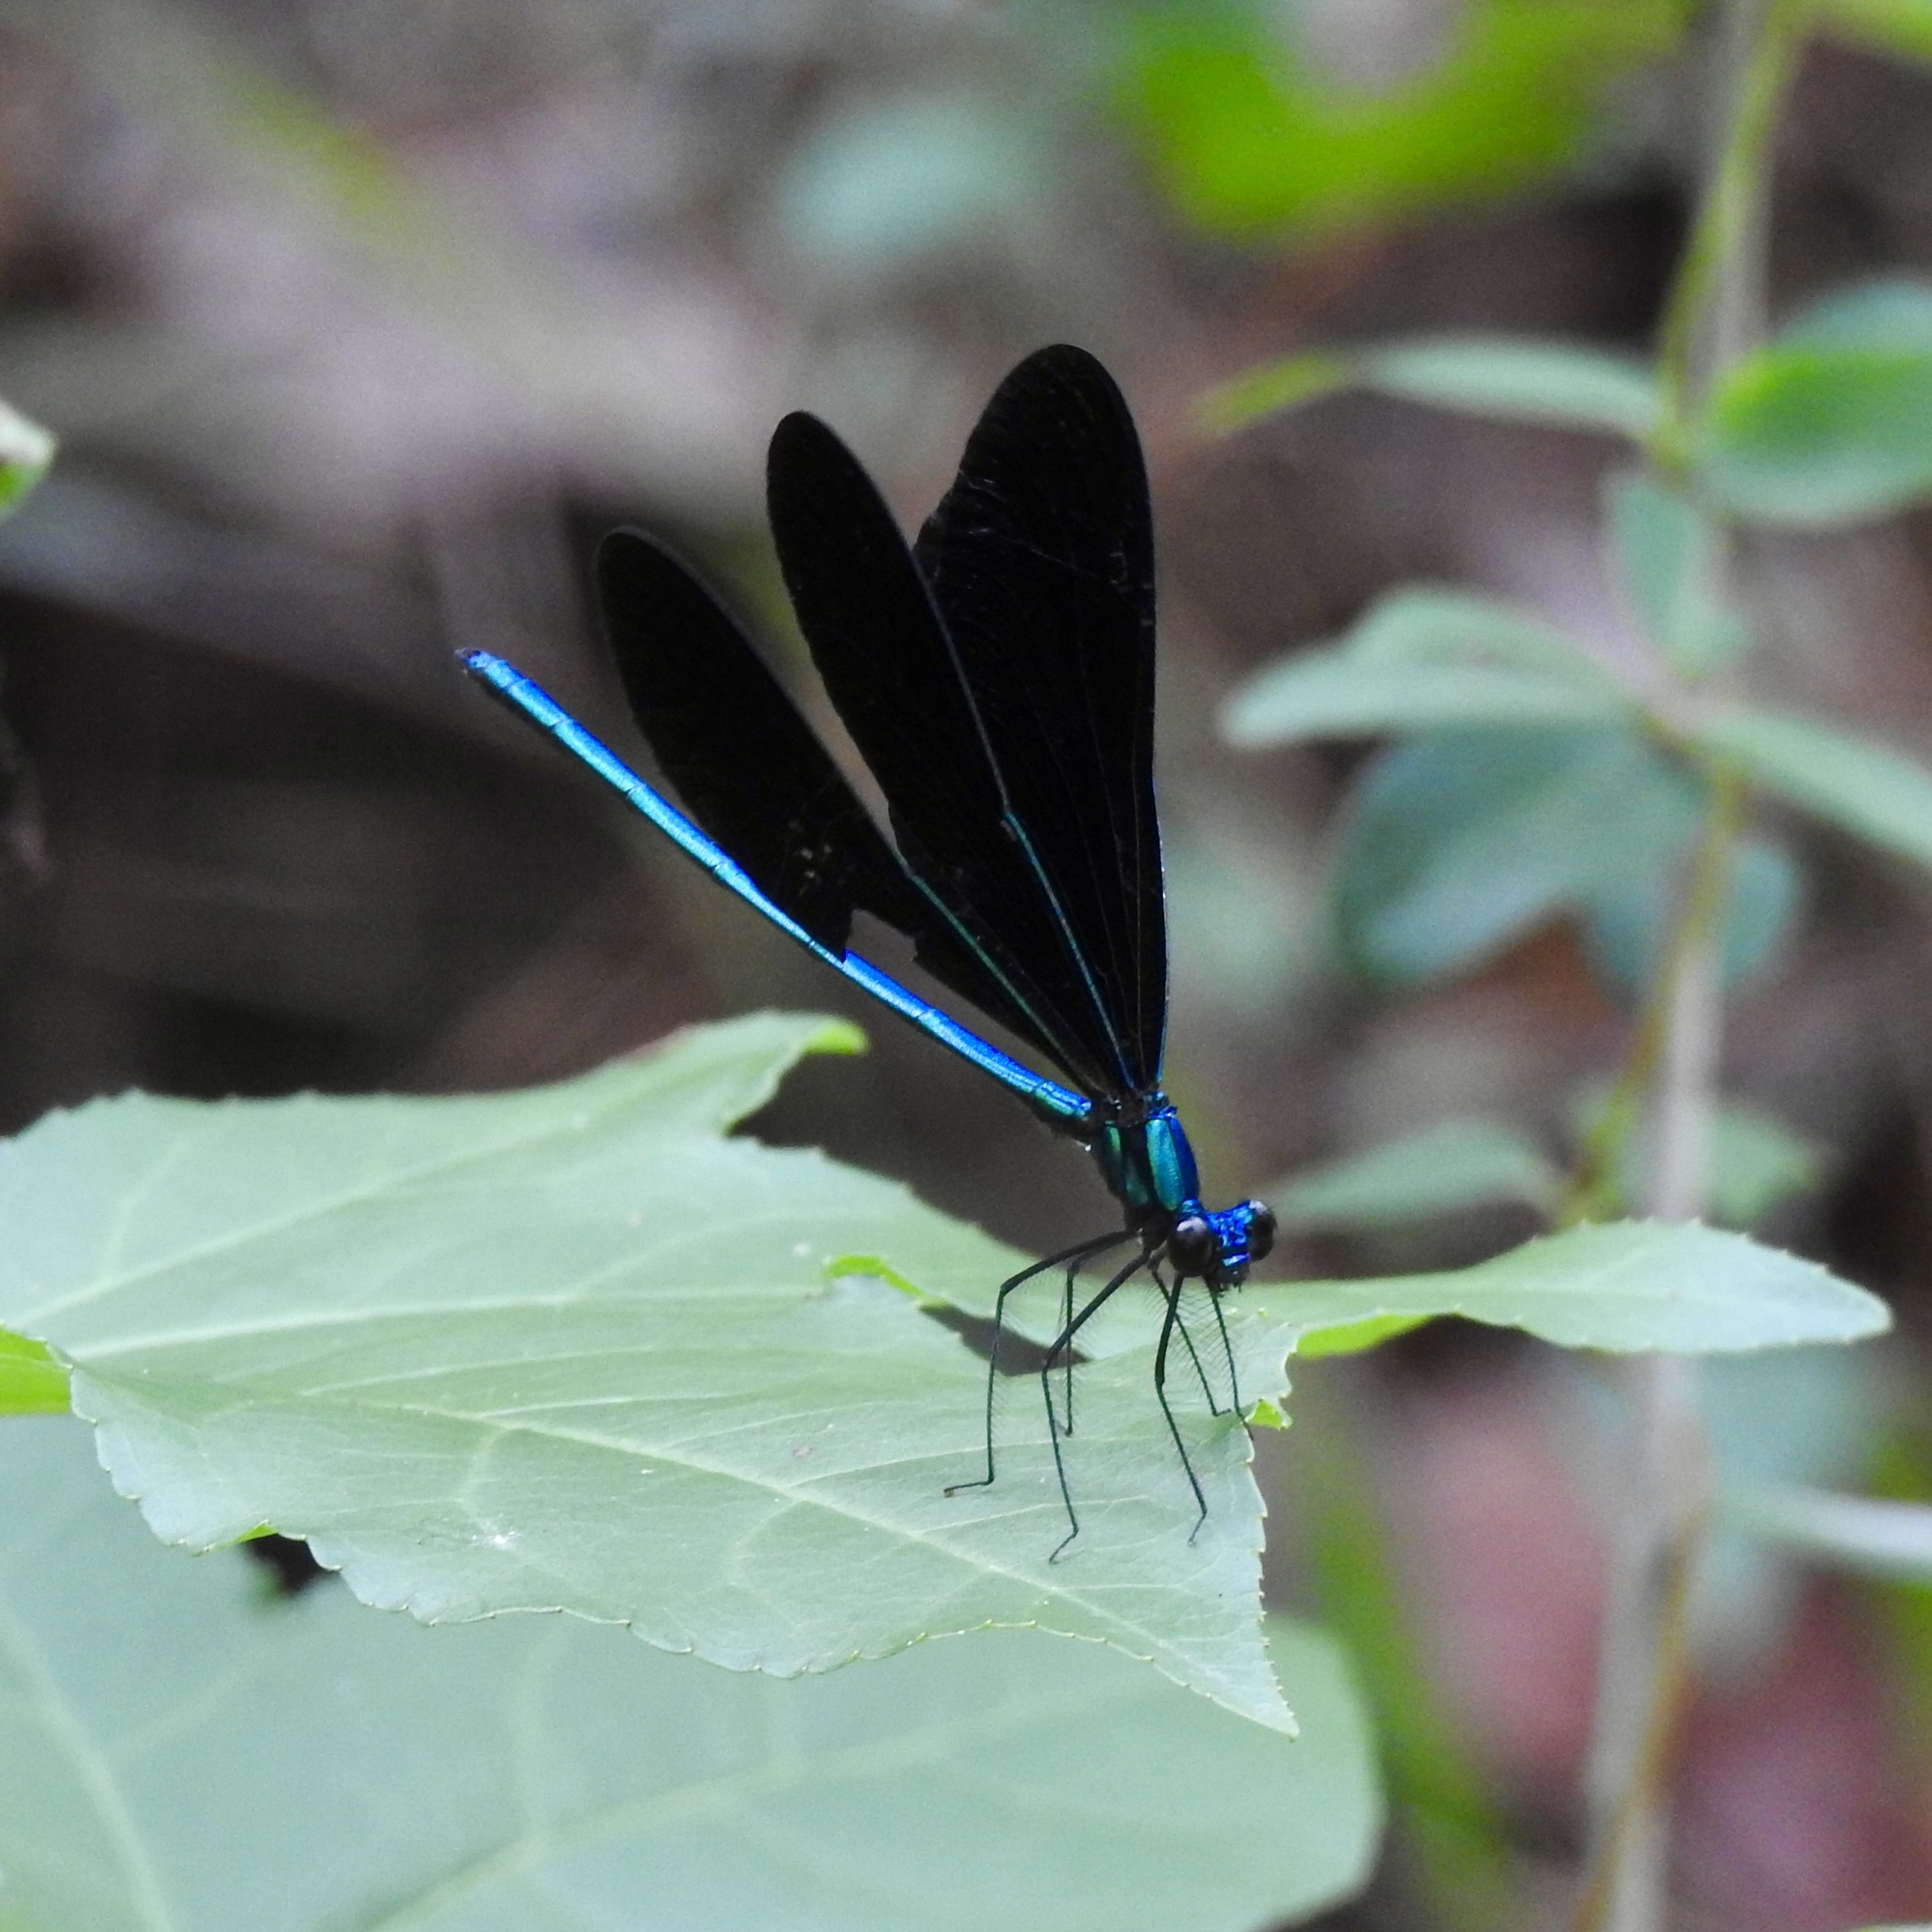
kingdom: Animalia
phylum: Arthropoda
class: Insecta
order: Odonata
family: Calopterygidae
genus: Calopteryx
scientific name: Calopteryx maculata
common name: Ebony jewelwing
